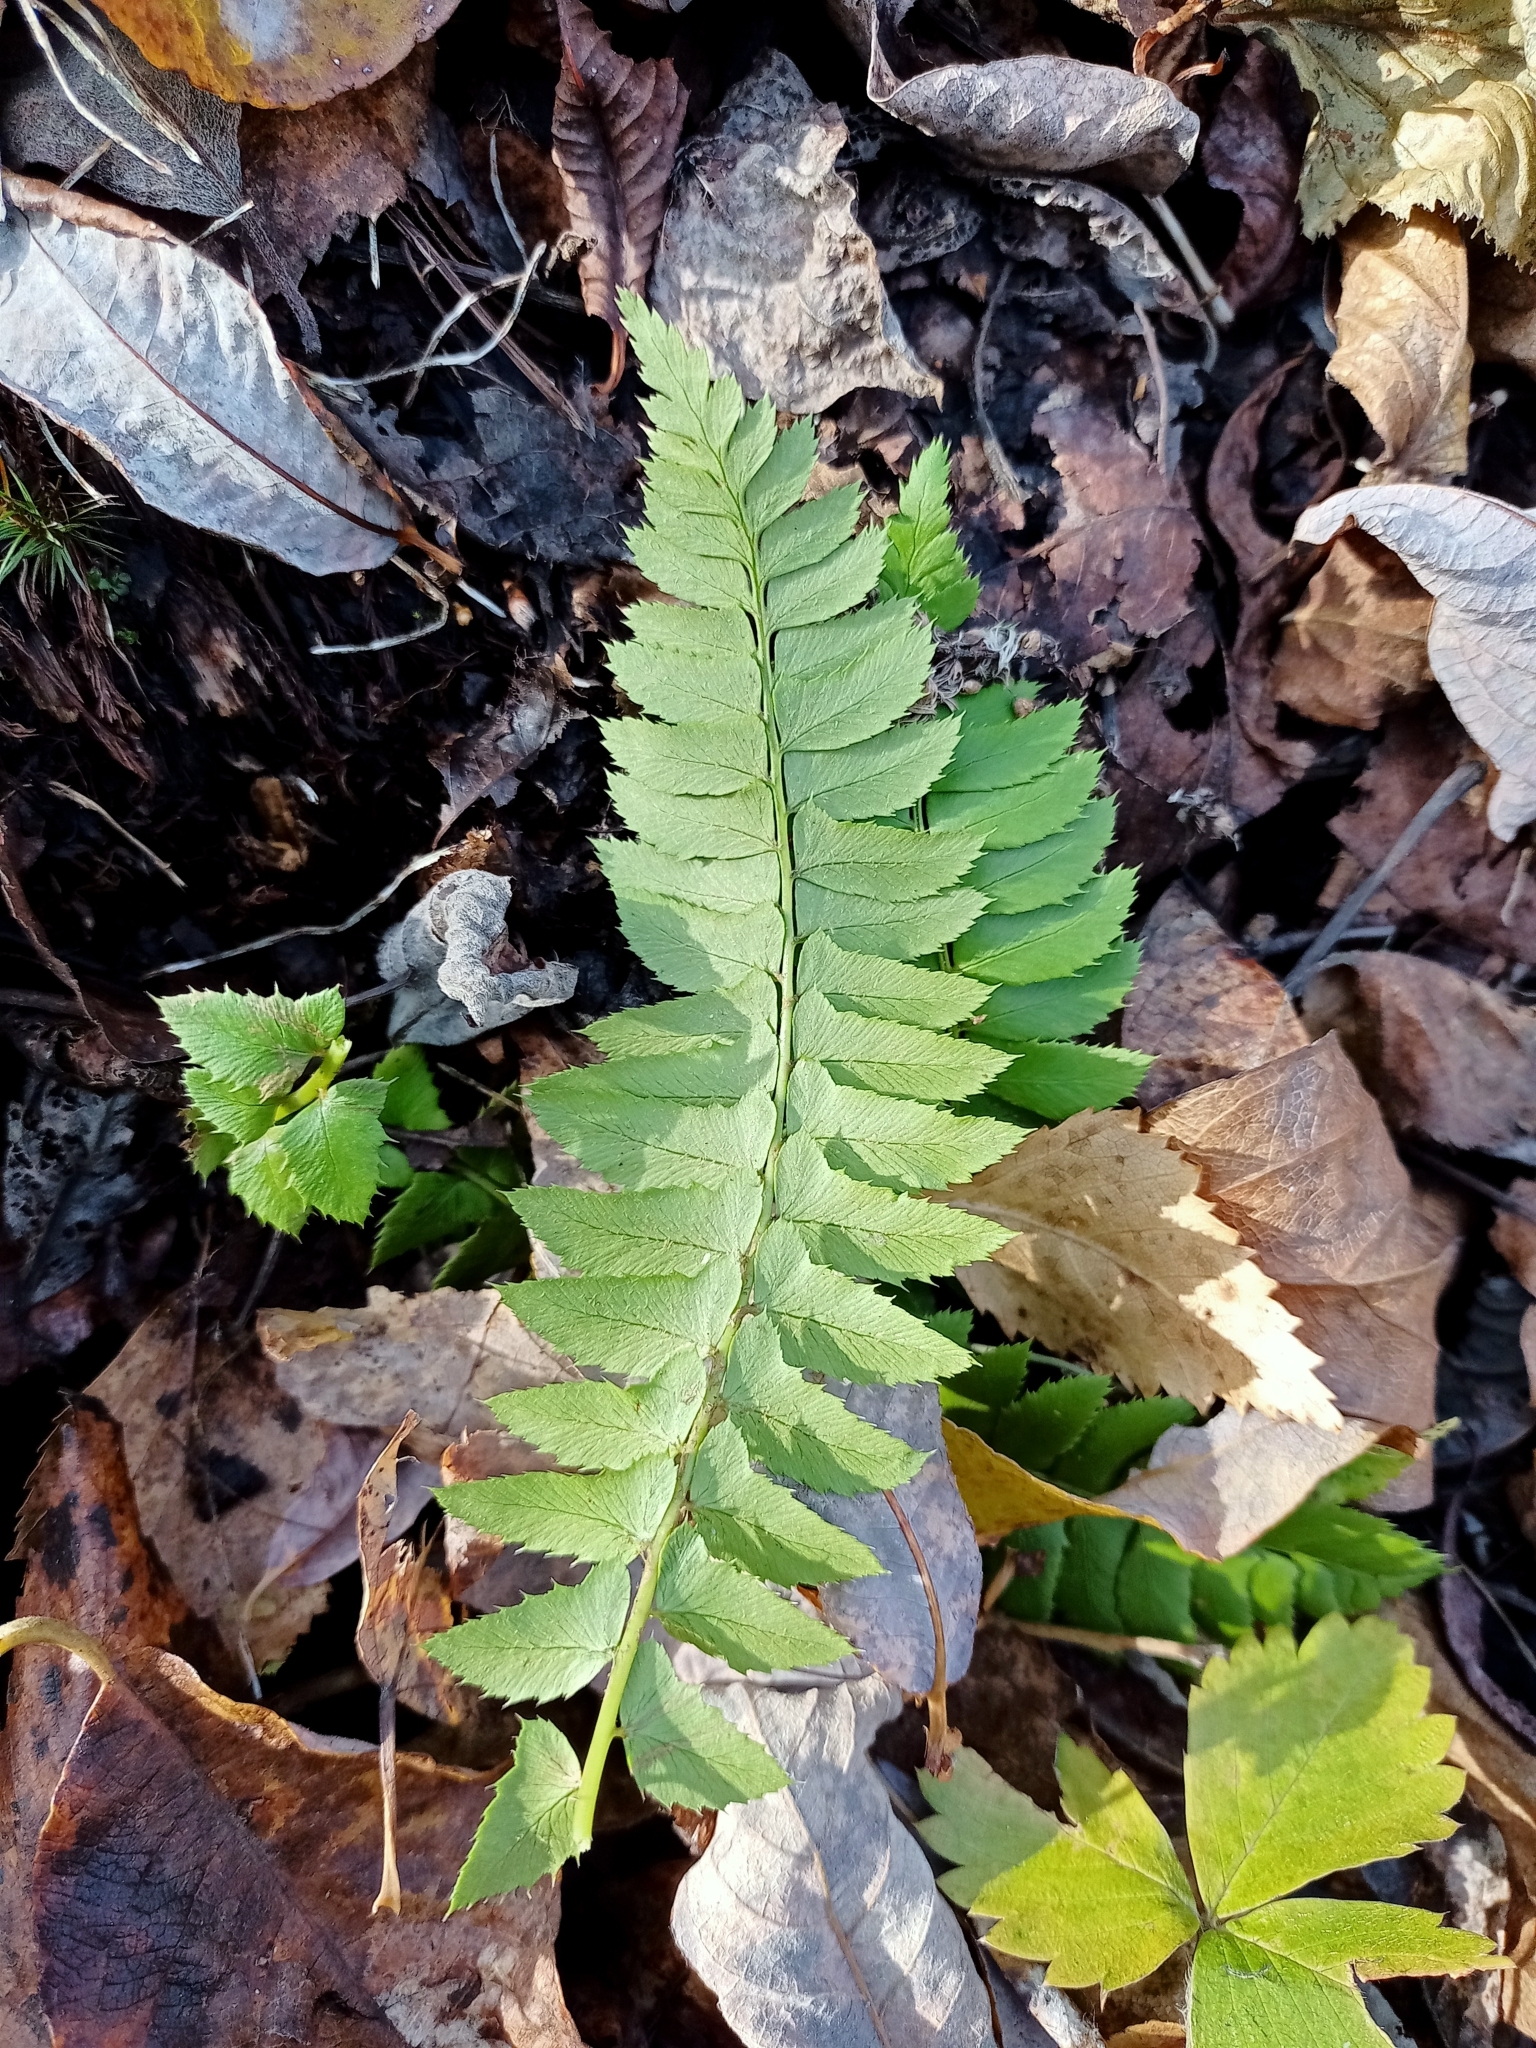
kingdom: Plantae
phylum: Tracheophyta
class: Polypodiopsida
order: Polypodiales
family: Dryopteridaceae
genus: Polystichum
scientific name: Polystichum lonchitis
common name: Holly fern
